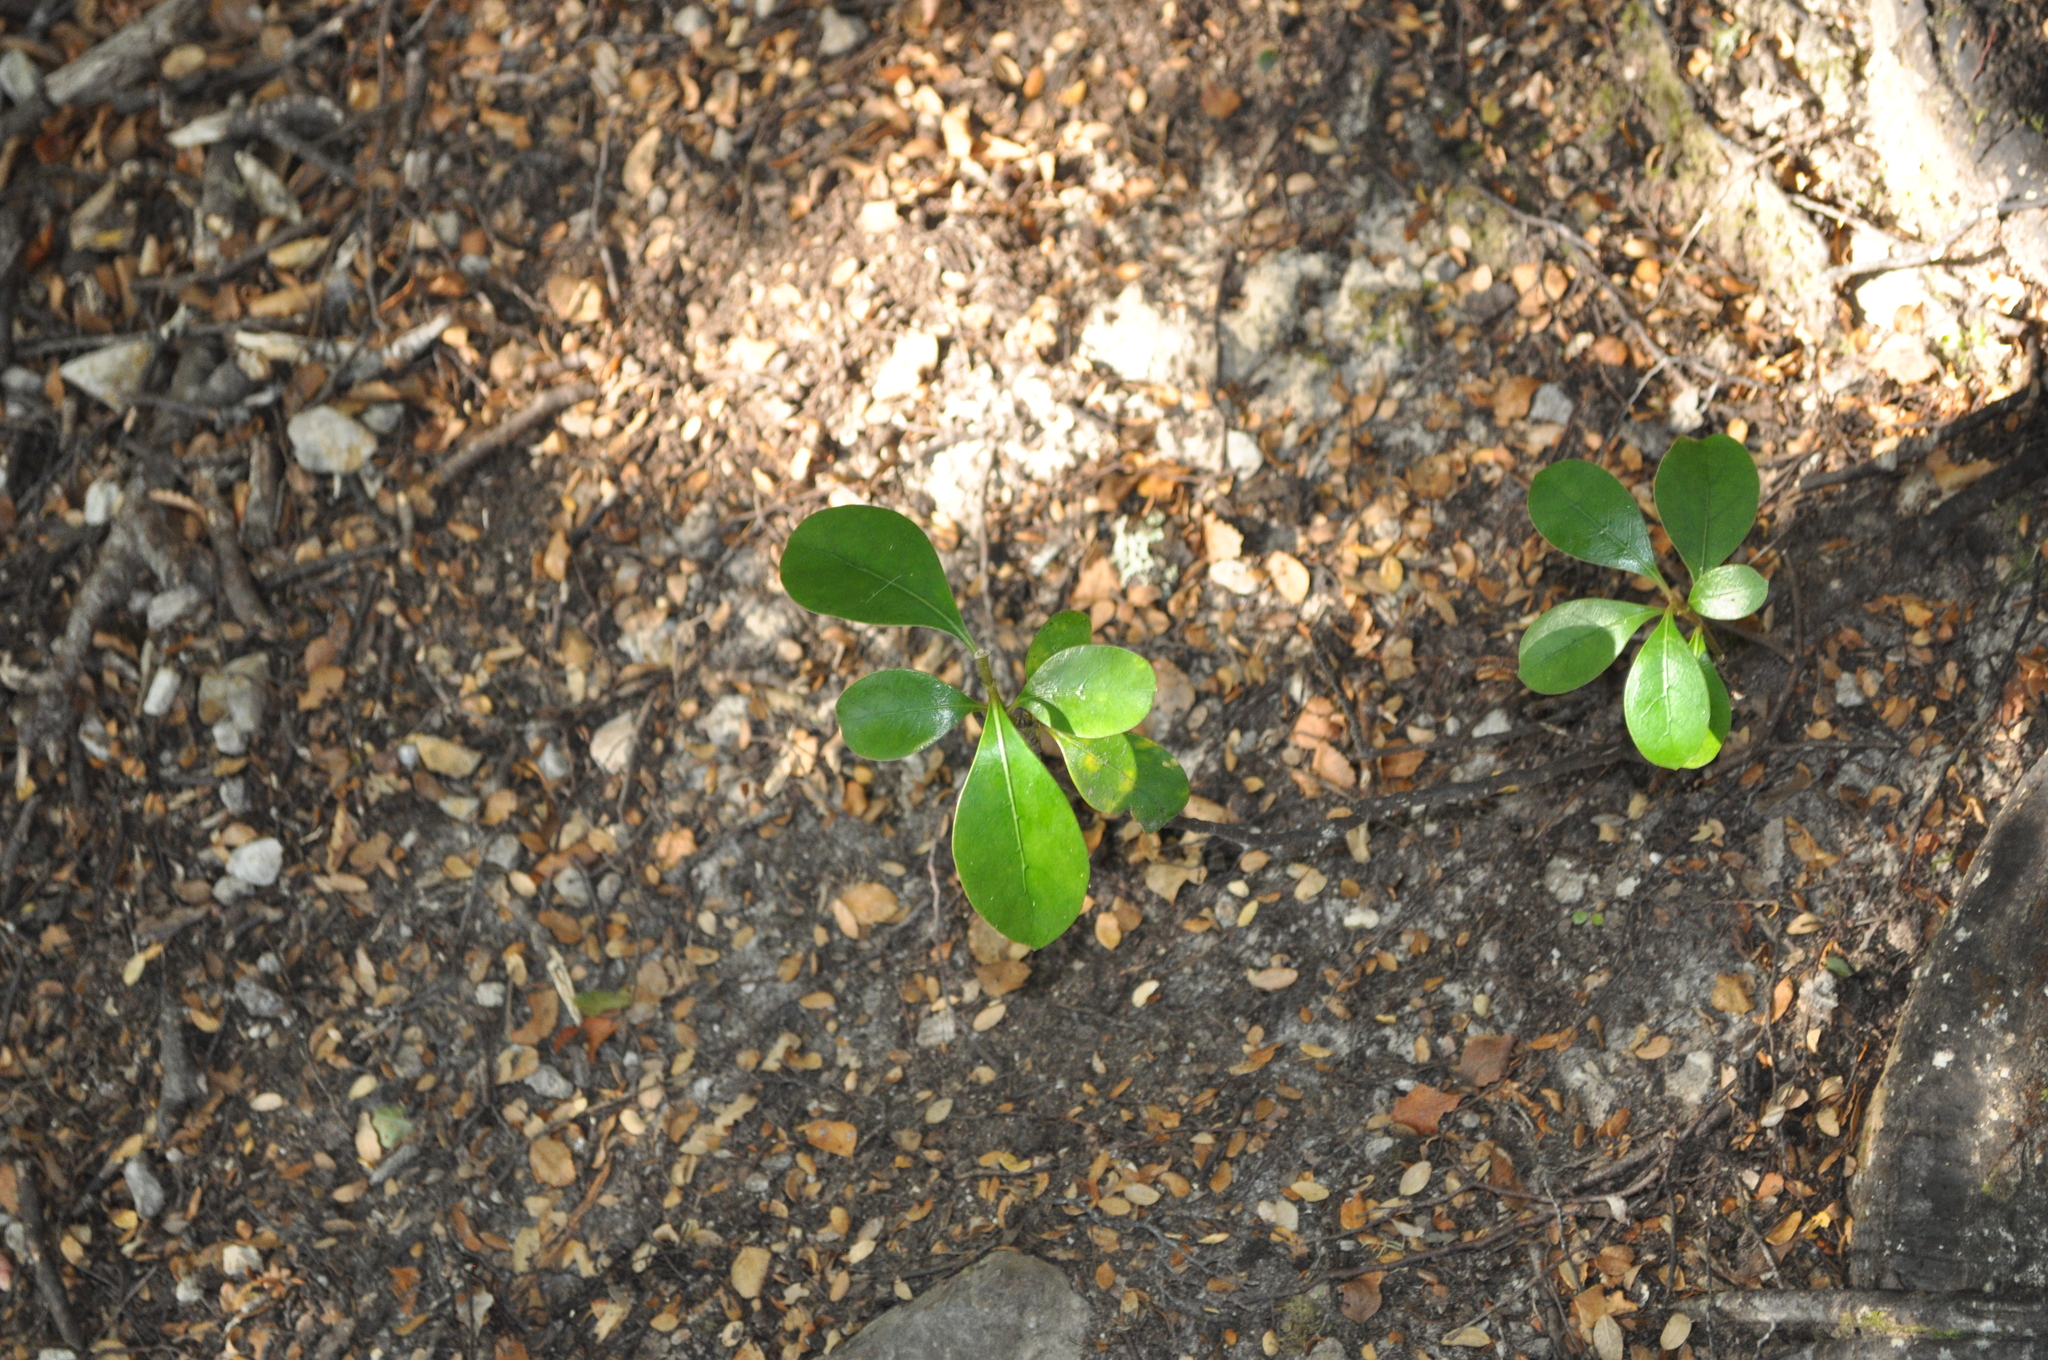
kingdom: Plantae
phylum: Tracheophyta
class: Magnoliopsida
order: Apiales
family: Pittosporaceae
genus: Pittosporum
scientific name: Pittosporum crassifolium
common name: Karo
